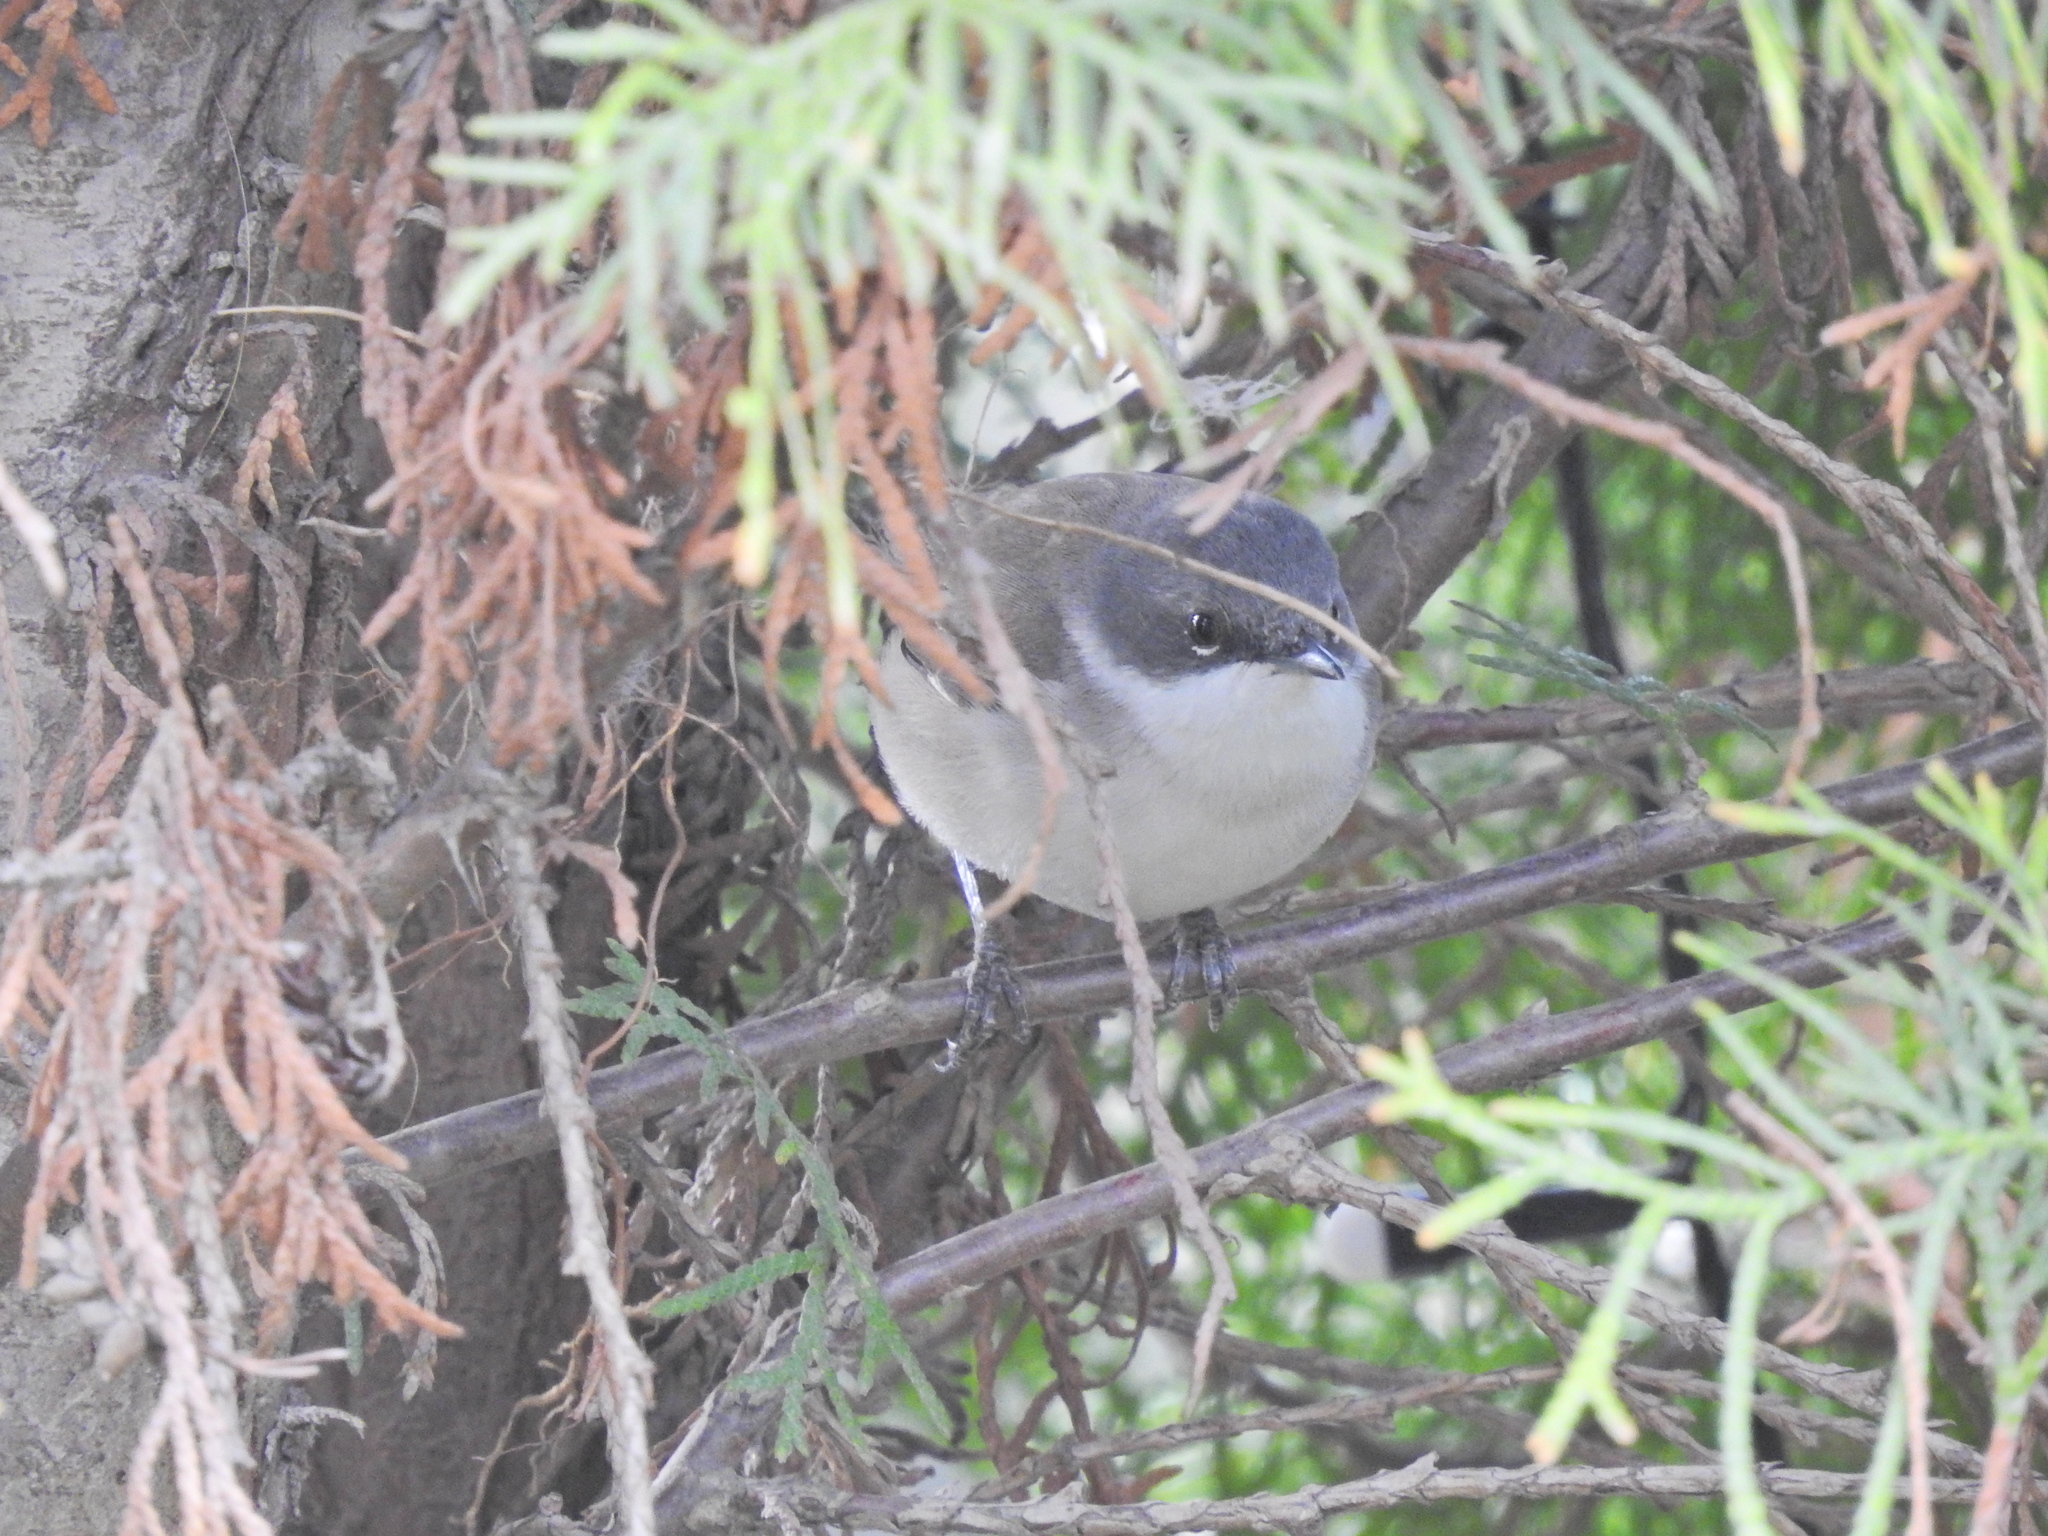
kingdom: Animalia
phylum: Chordata
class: Aves
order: Passeriformes
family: Sylviidae
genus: Sylvia
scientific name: Sylvia curruca
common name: Lesser whitethroat
